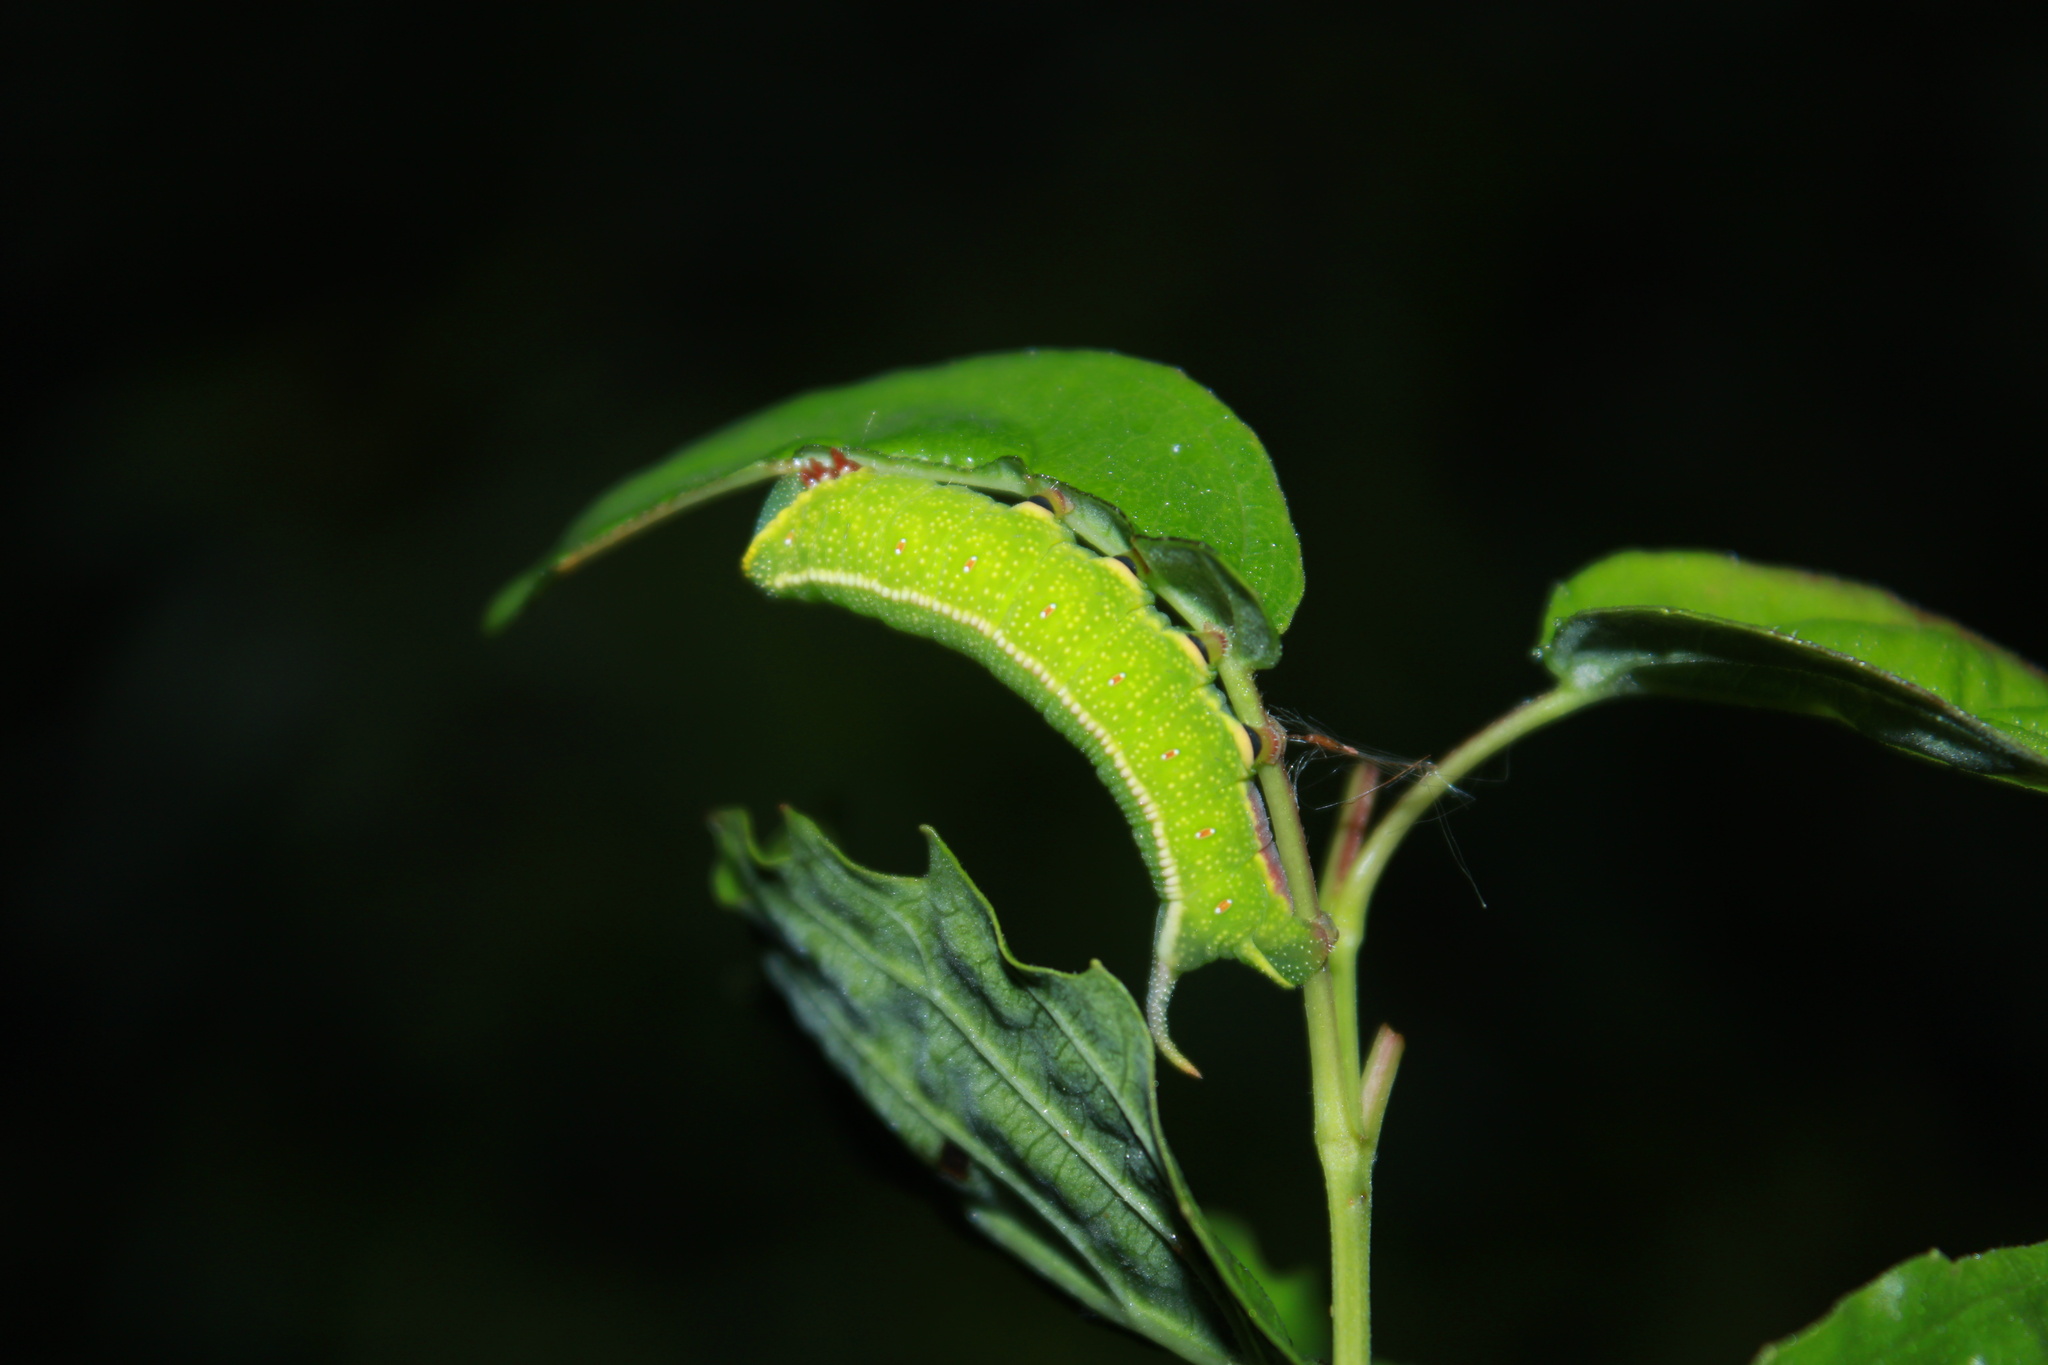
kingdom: Animalia
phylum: Arthropoda
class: Insecta
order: Lepidoptera
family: Sphingidae
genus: Hemaris
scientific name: Hemaris thysbe
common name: Common clear-wing
